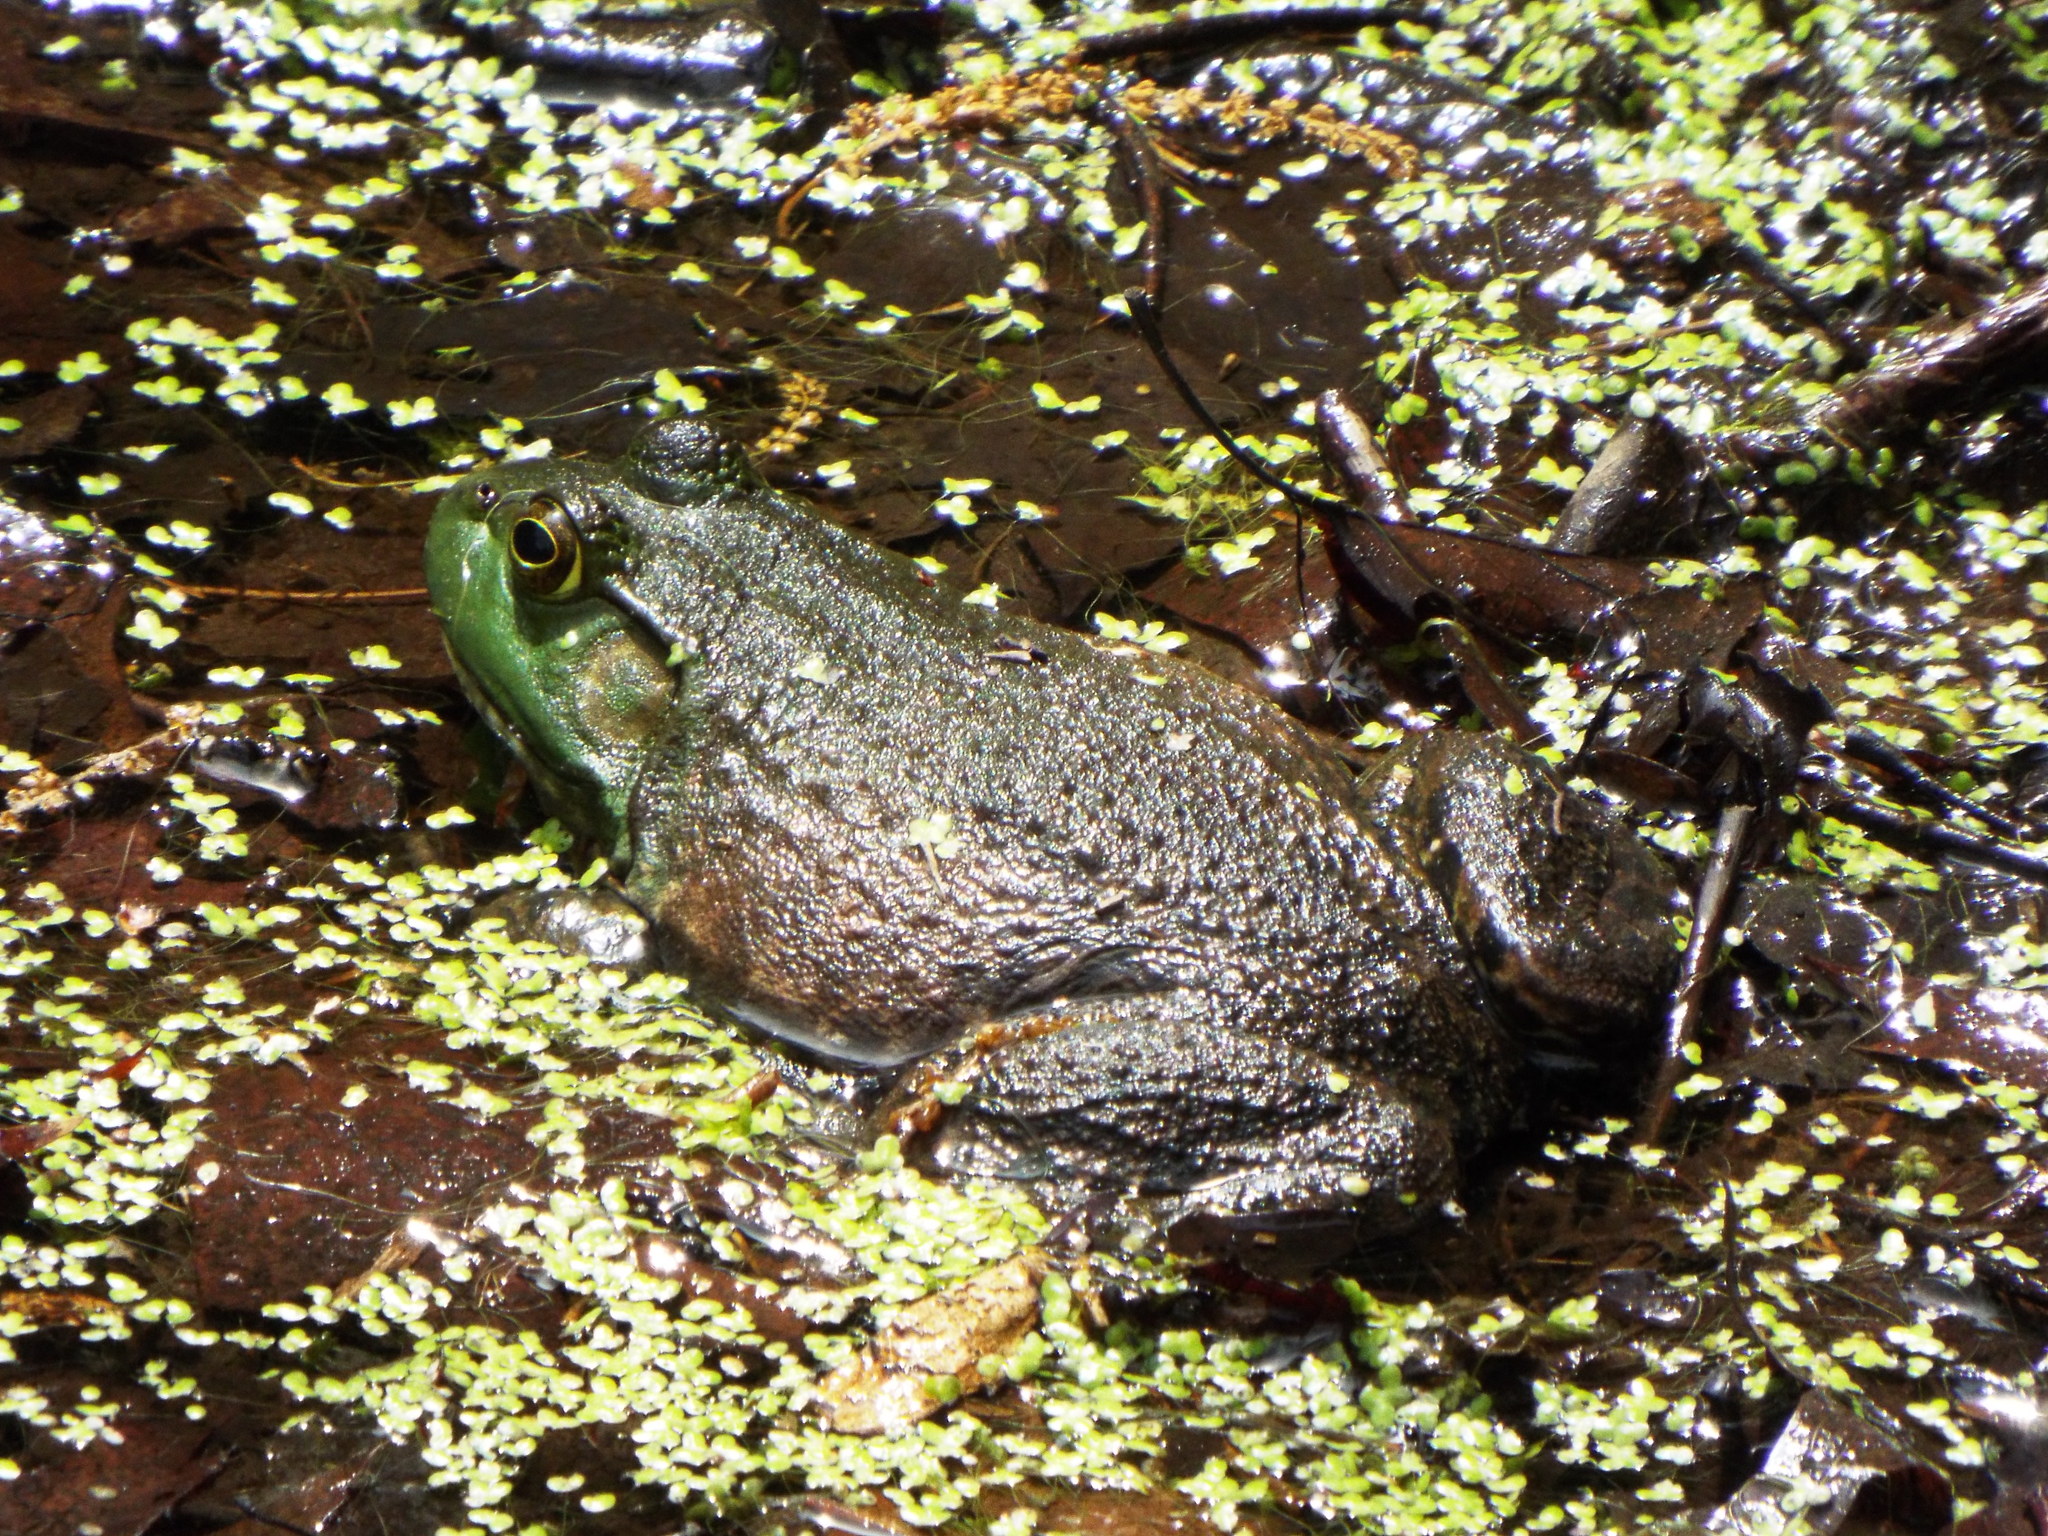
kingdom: Animalia
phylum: Chordata
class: Amphibia
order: Anura
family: Ranidae
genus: Lithobates
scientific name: Lithobates catesbeianus
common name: American bullfrog
